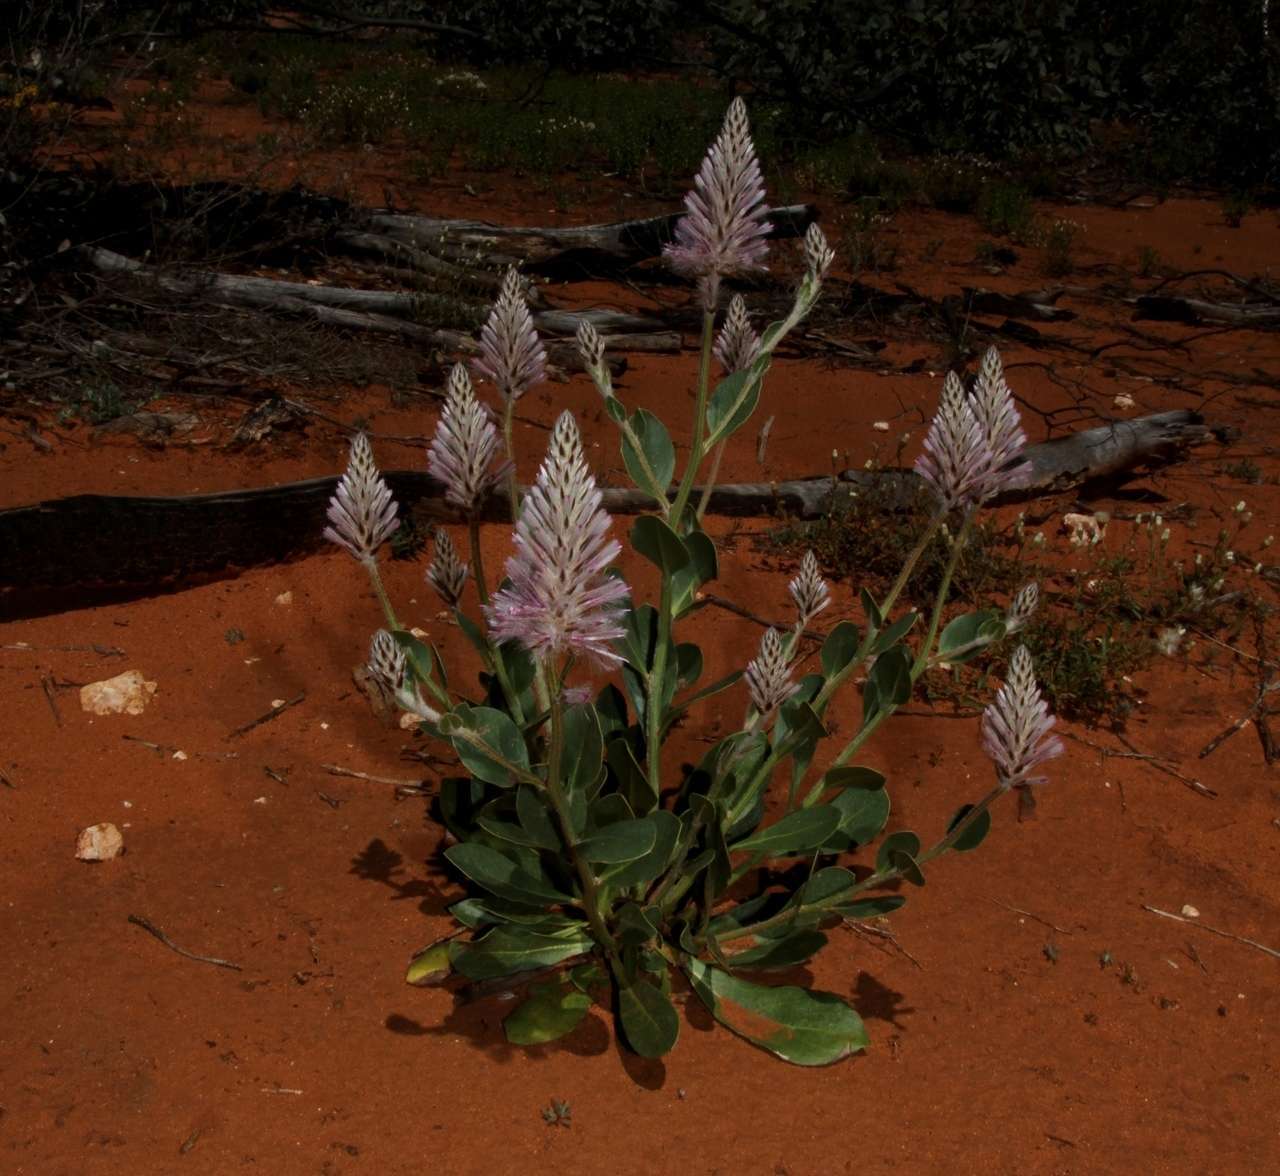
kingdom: Plantae
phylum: Tracheophyta
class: Magnoliopsida
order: Caryophyllales
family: Amaranthaceae
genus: Ptilotus
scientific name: Ptilotus exaltatus
